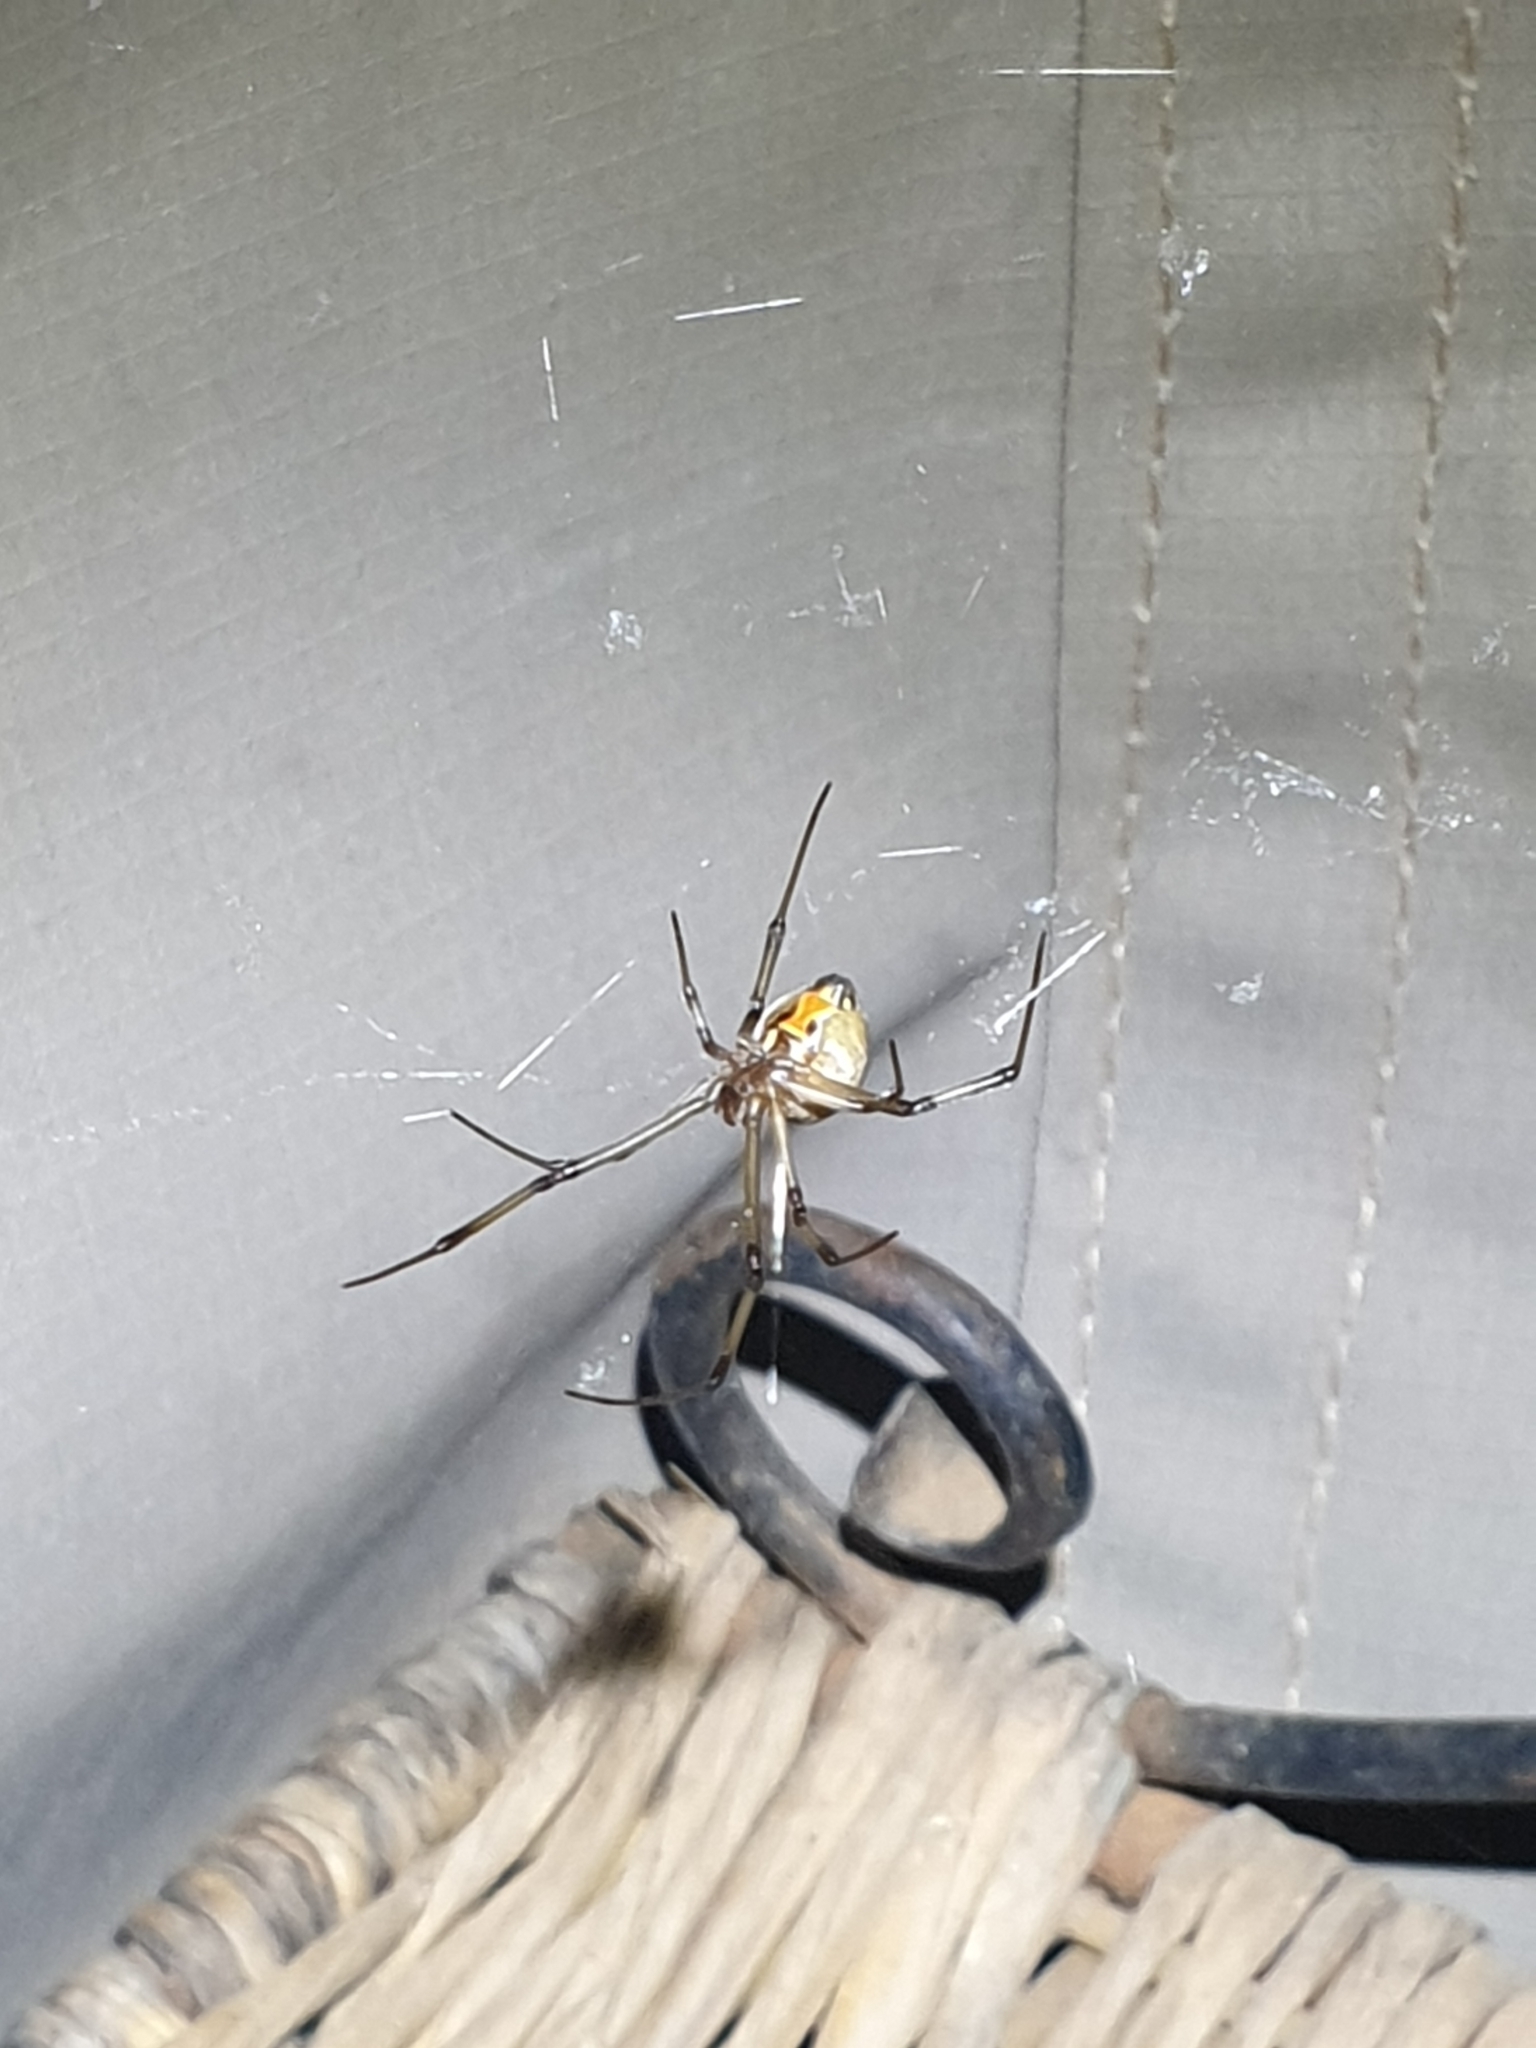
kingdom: Animalia
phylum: Arthropoda
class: Arachnida
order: Araneae
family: Theridiidae
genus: Latrodectus
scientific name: Latrodectus geometricus
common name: Brown widow spider
